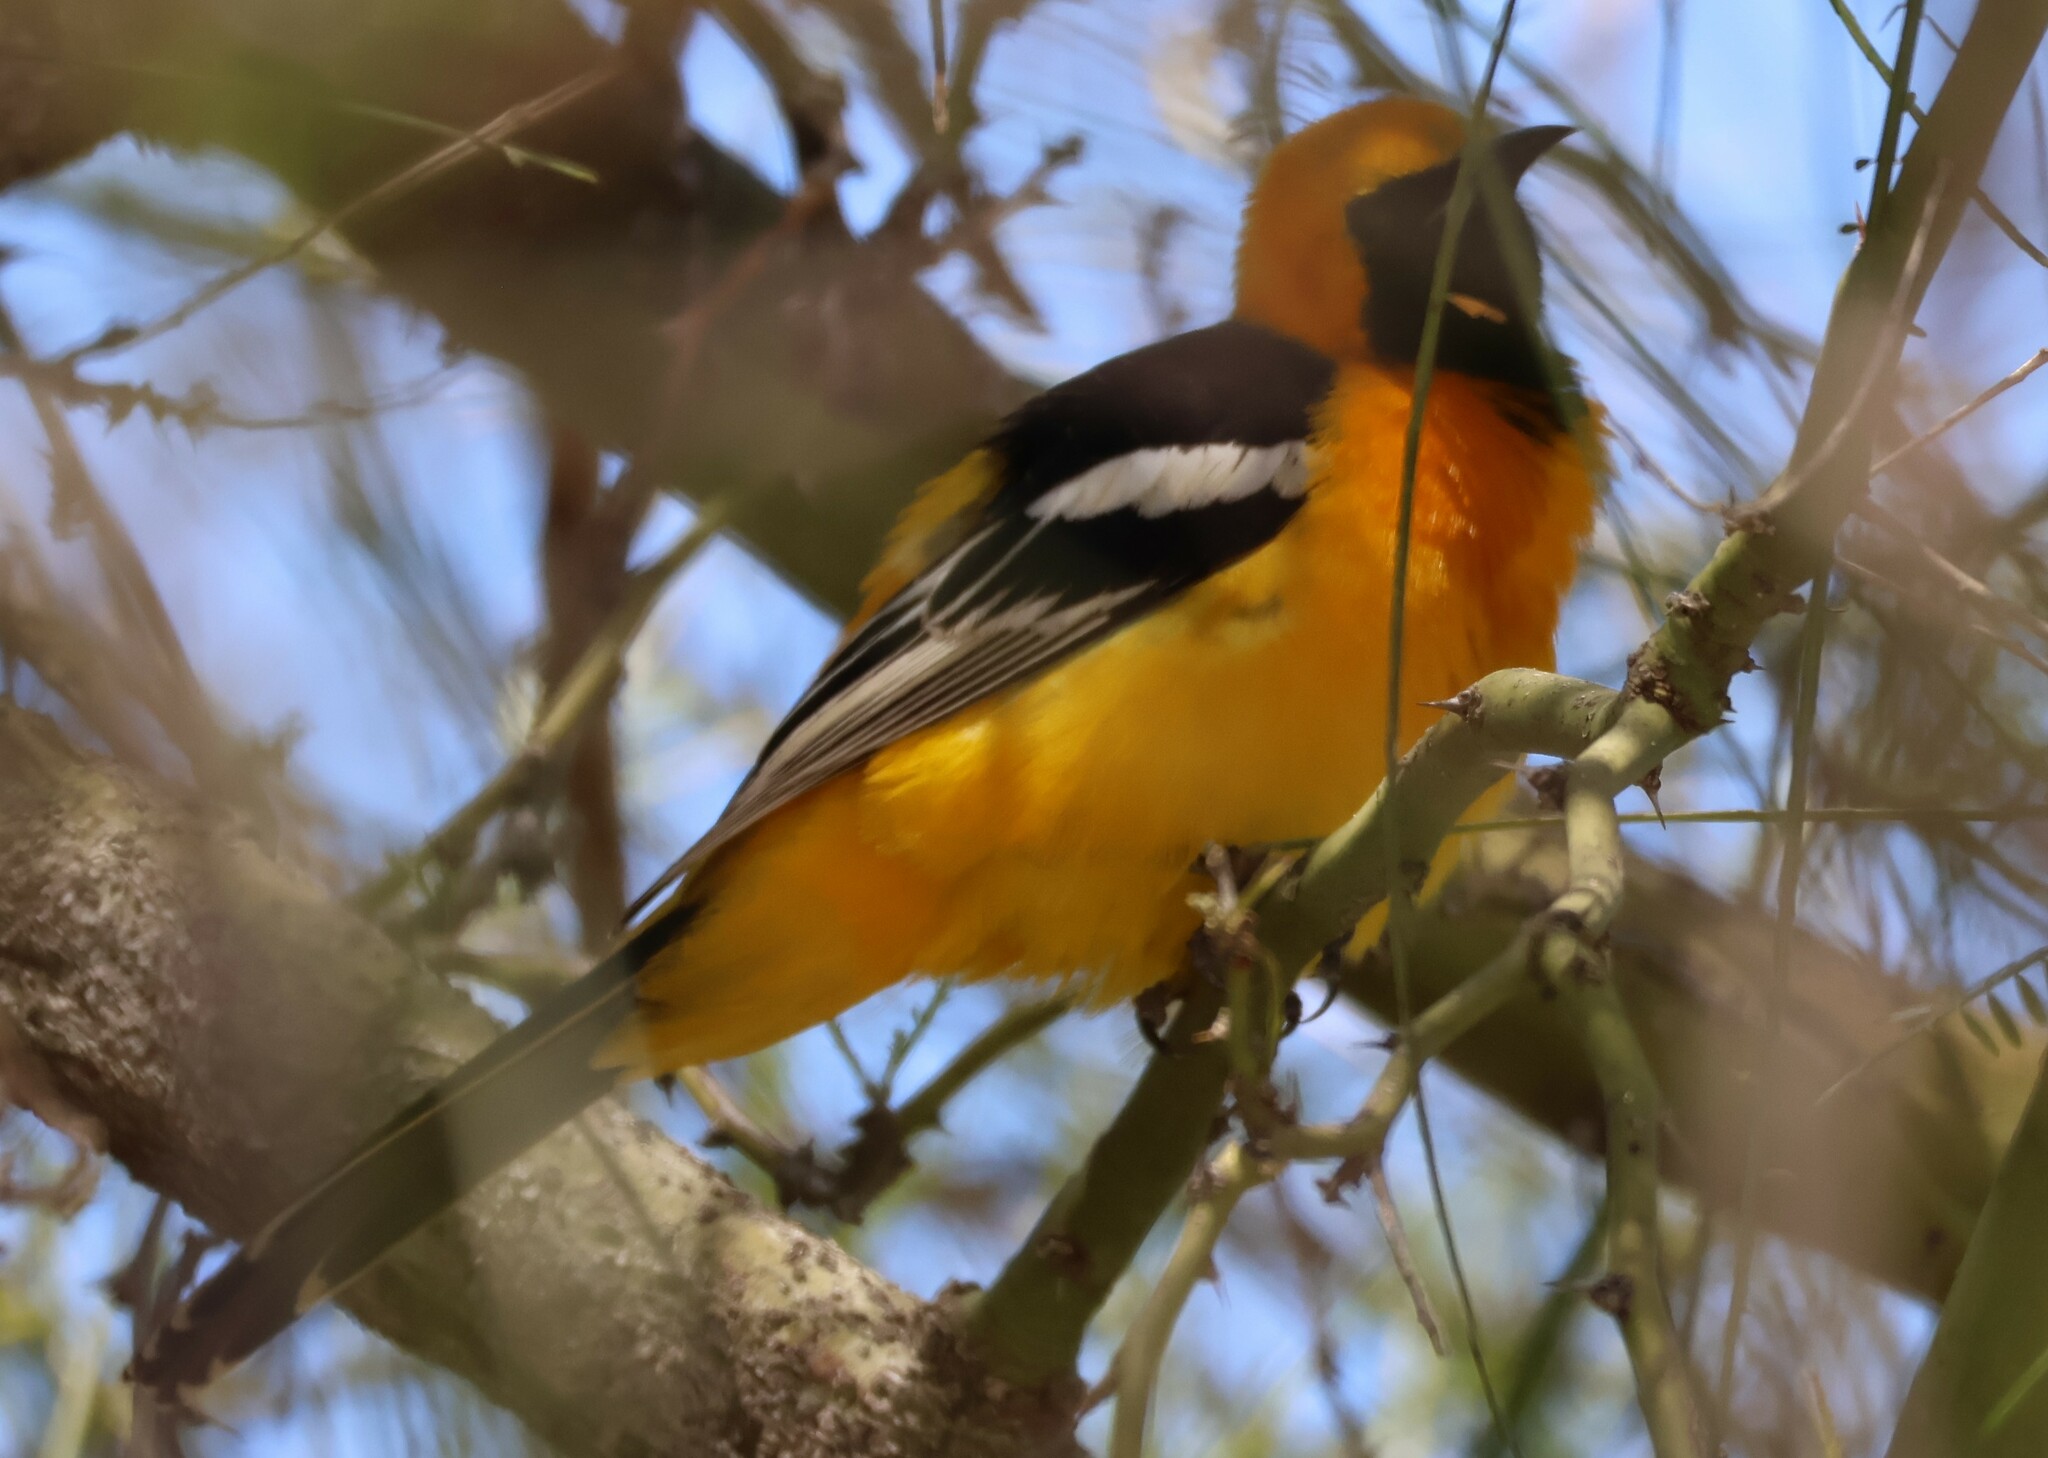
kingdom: Animalia
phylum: Chordata
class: Aves
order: Passeriformes
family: Icteridae
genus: Icterus
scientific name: Icterus cucullatus
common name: Hooded oriole
